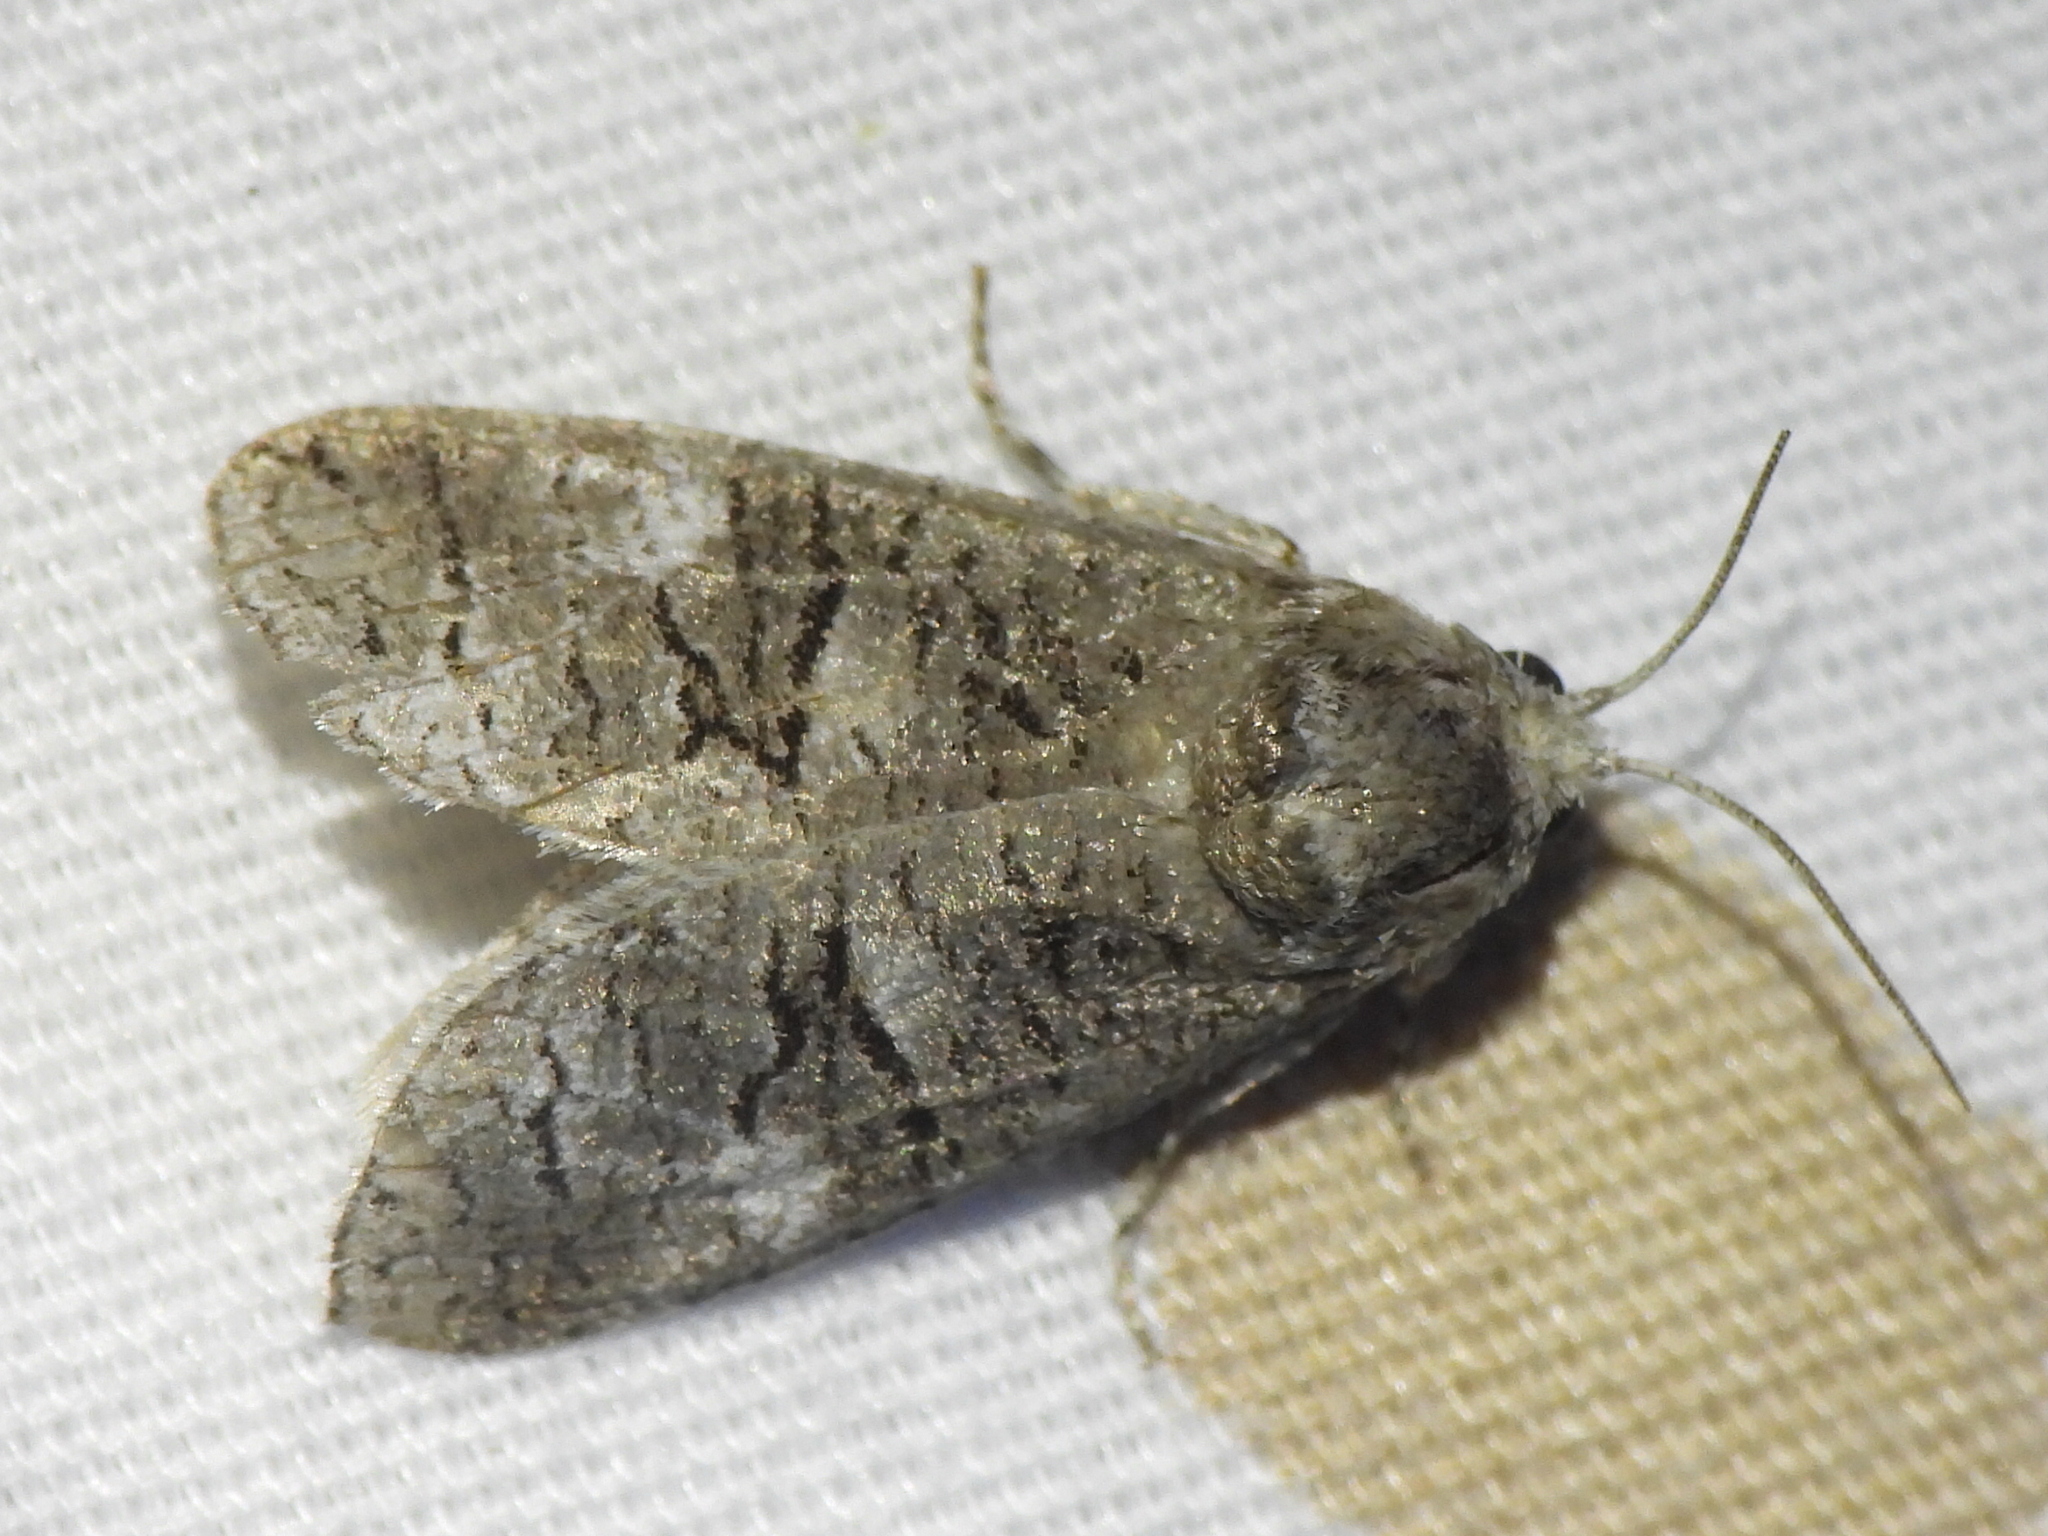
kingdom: Animalia
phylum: Arthropoda
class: Insecta
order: Lepidoptera
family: Cossidae
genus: Fania
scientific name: Fania nanus
